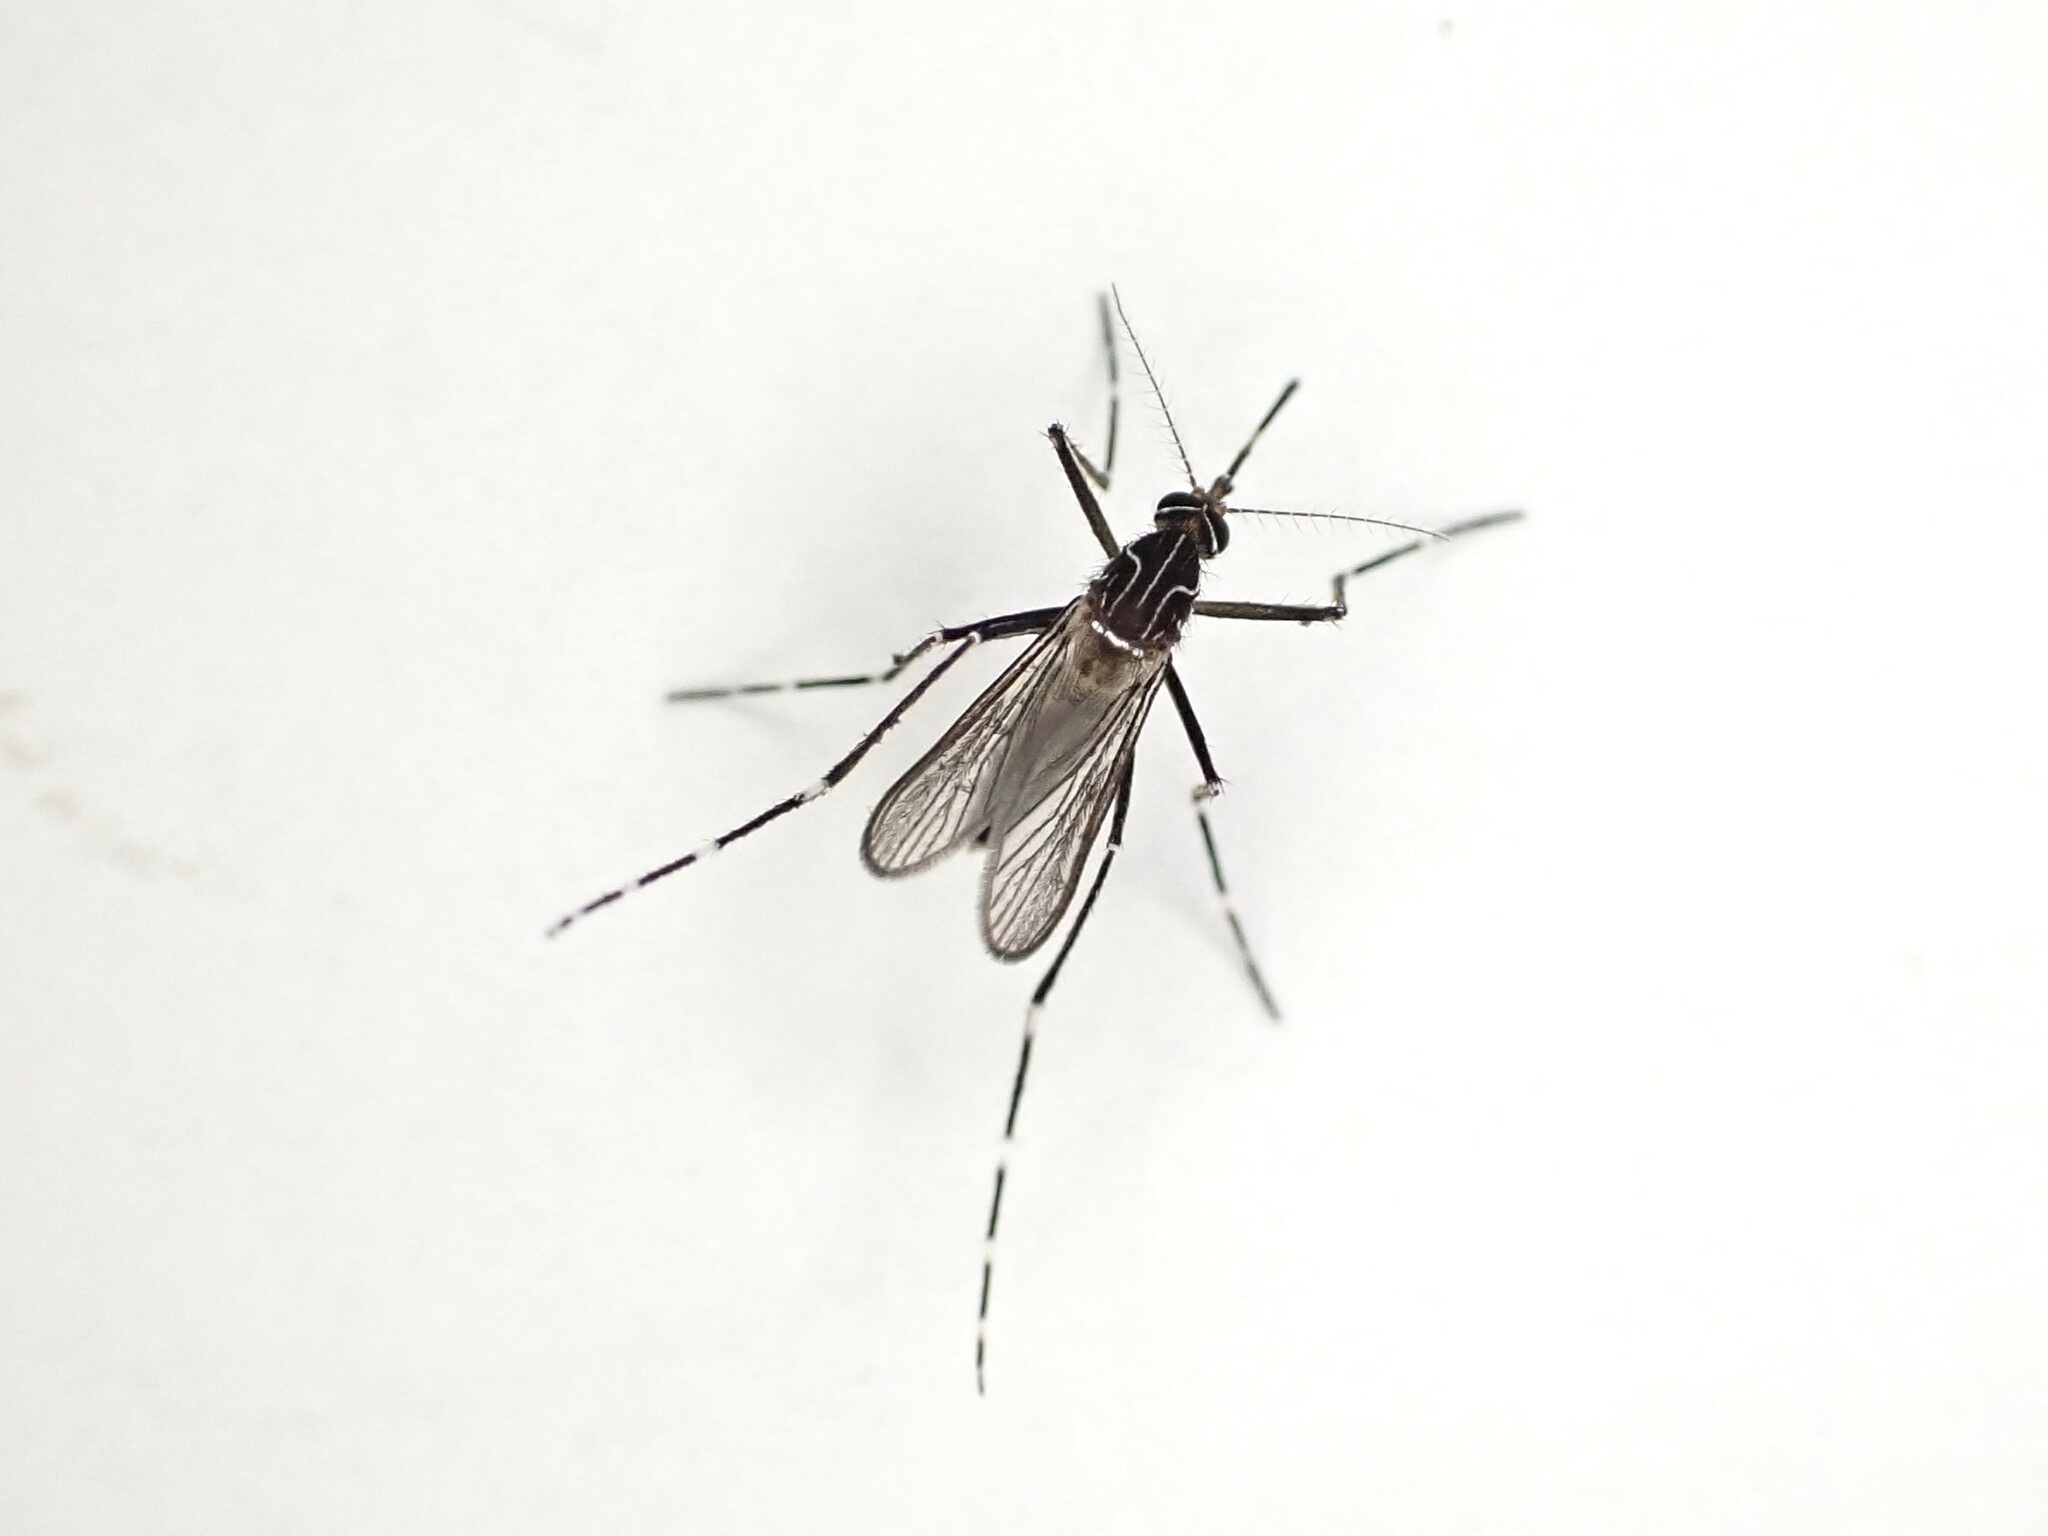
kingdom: Animalia
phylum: Arthropoda
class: Insecta
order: Diptera
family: Culicidae
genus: Aedes
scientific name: Aedes notoscriptus
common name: Australian backyard mosquito
